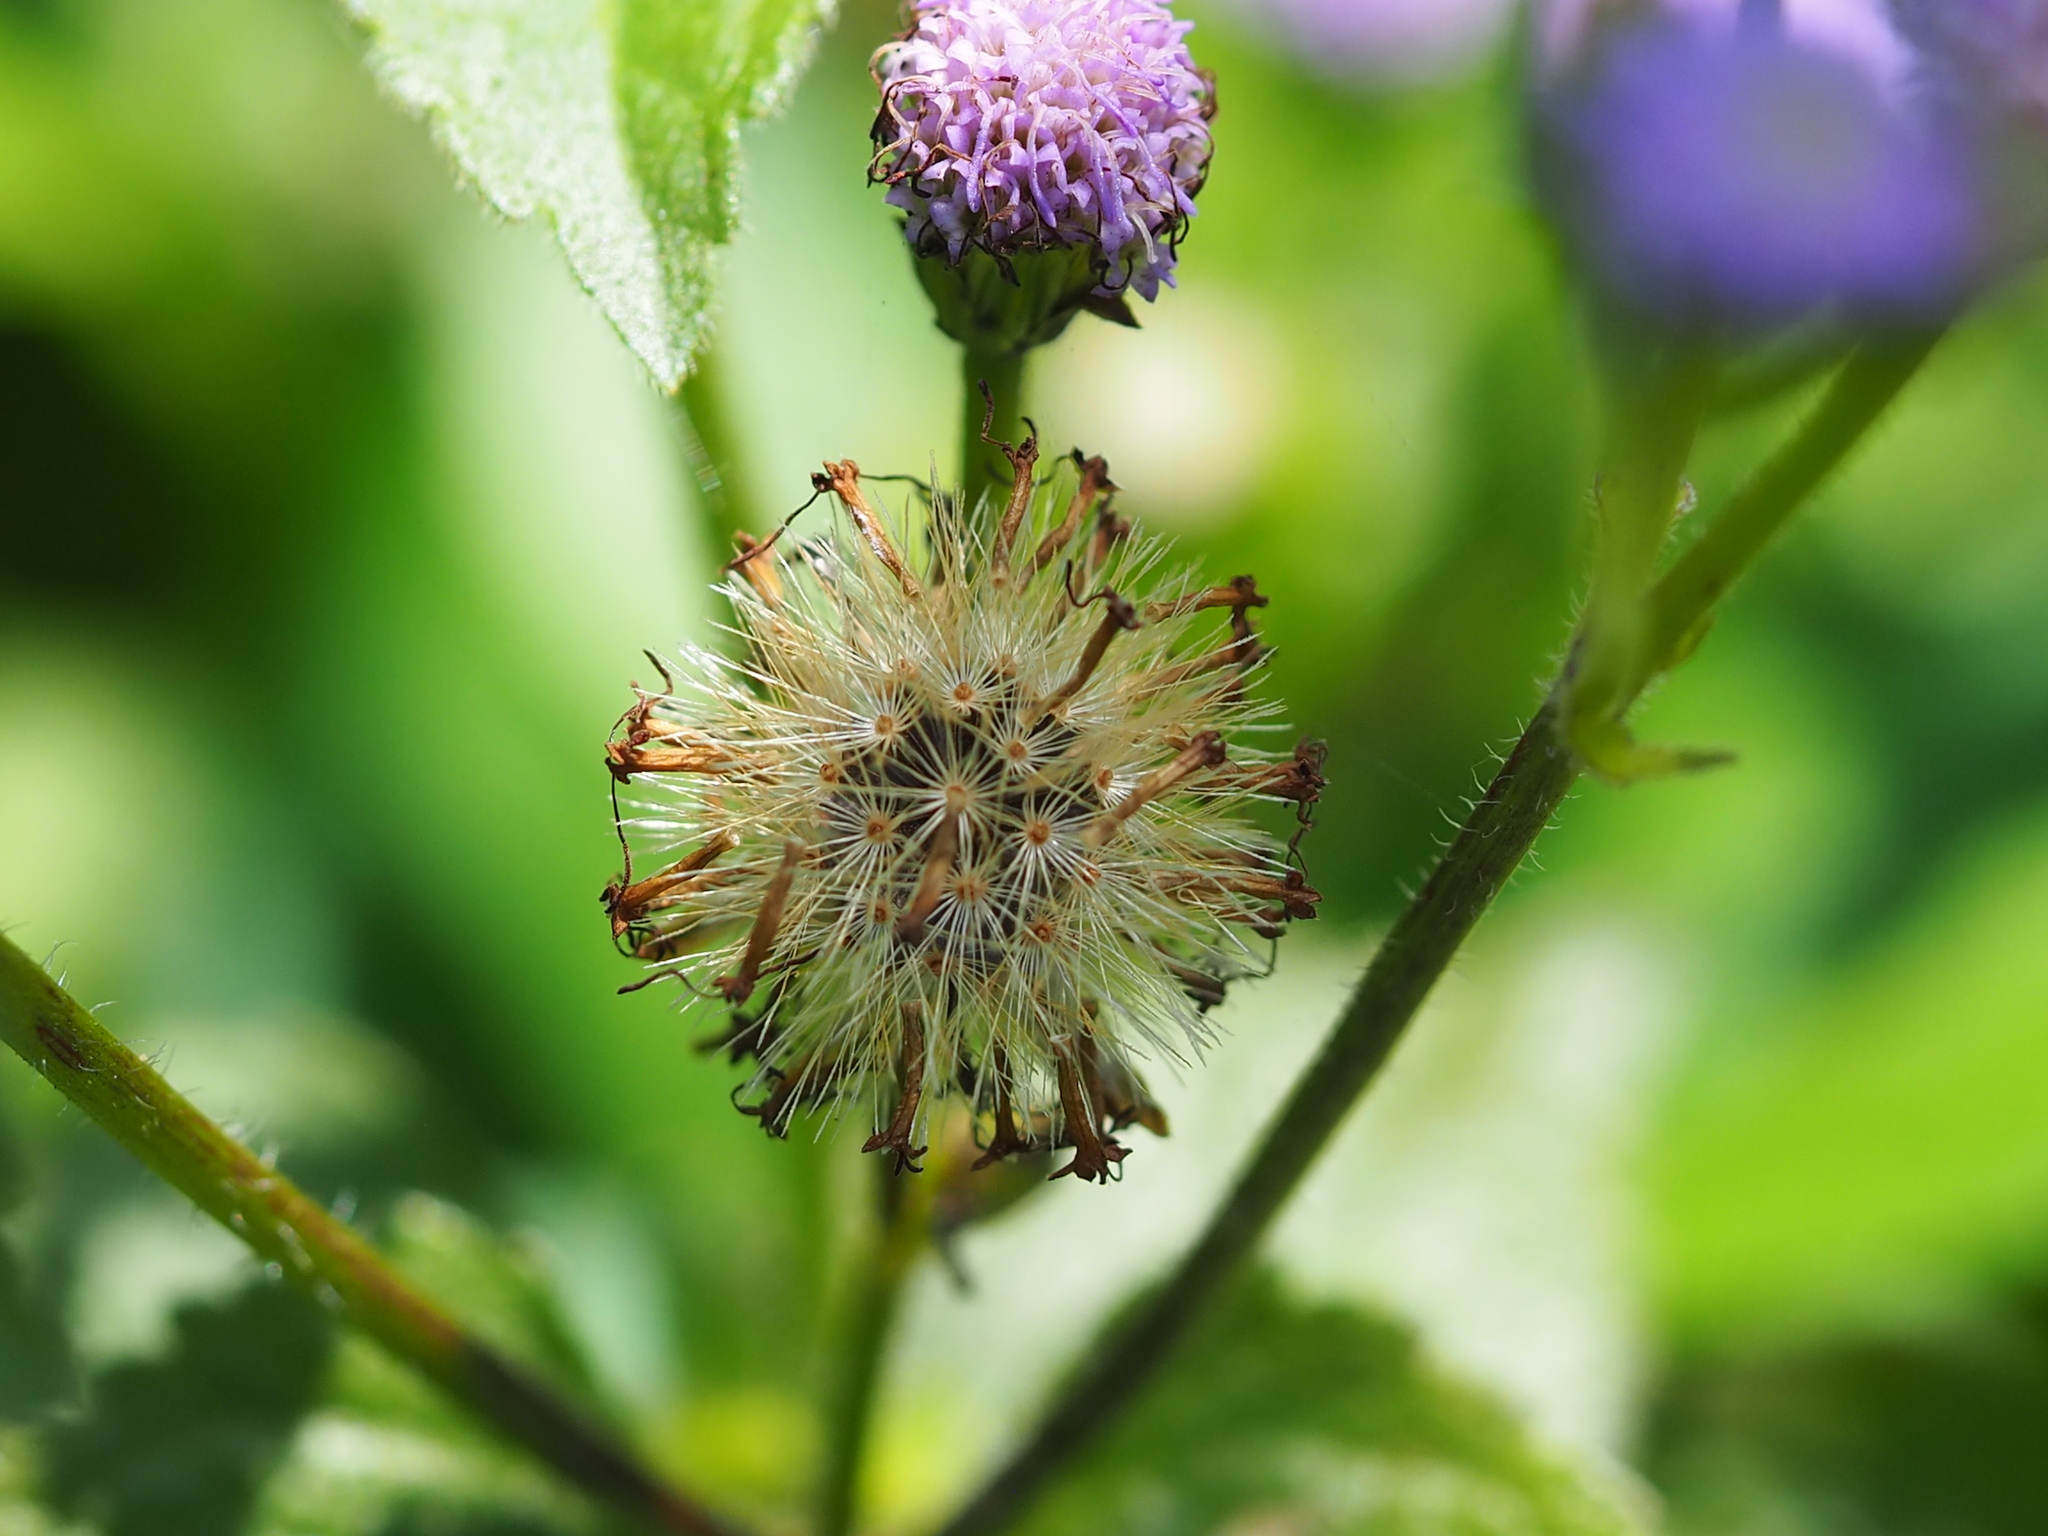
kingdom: Plantae
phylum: Tracheophyta
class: Magnoliopsida
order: Asterales
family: Asteraceae
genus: Praxelis
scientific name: Praxelis clematidea
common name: Praxelis
